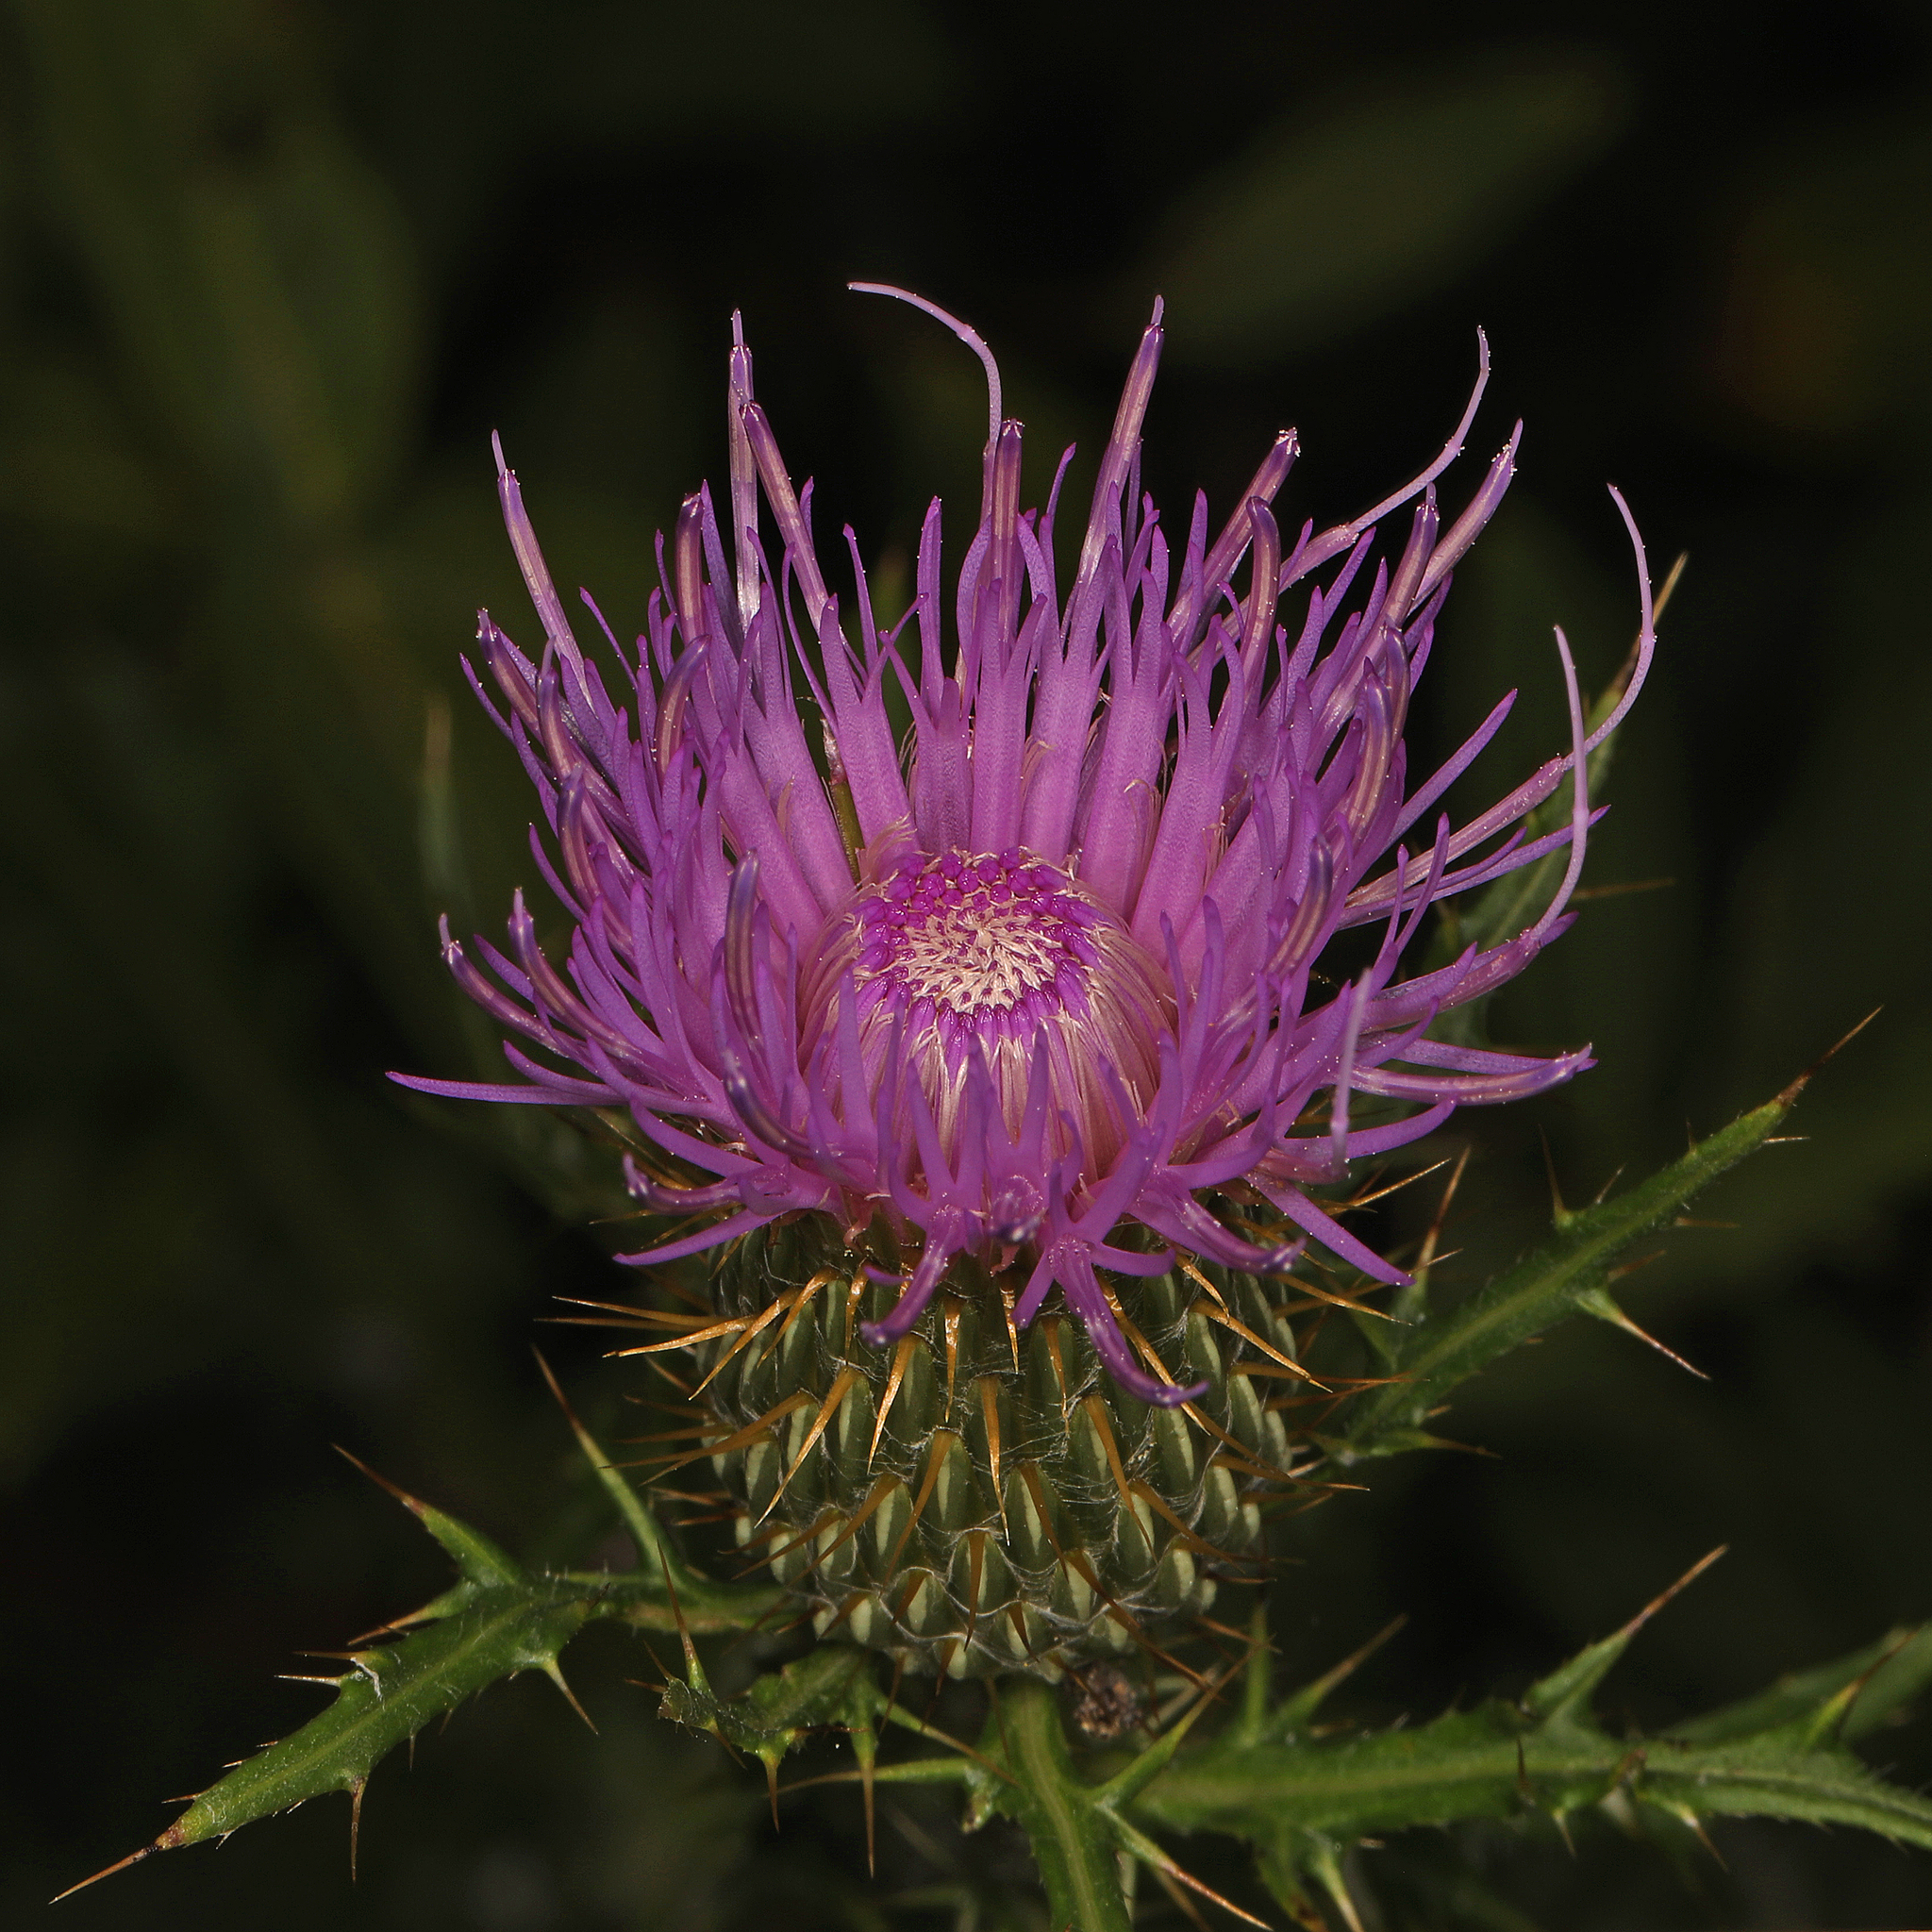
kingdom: Plantae
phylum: Tracheophyta
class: Magnoliopsida
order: Asterales
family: Asteraceae
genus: Cirsium
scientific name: Cirsium discolor
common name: Field thistle
